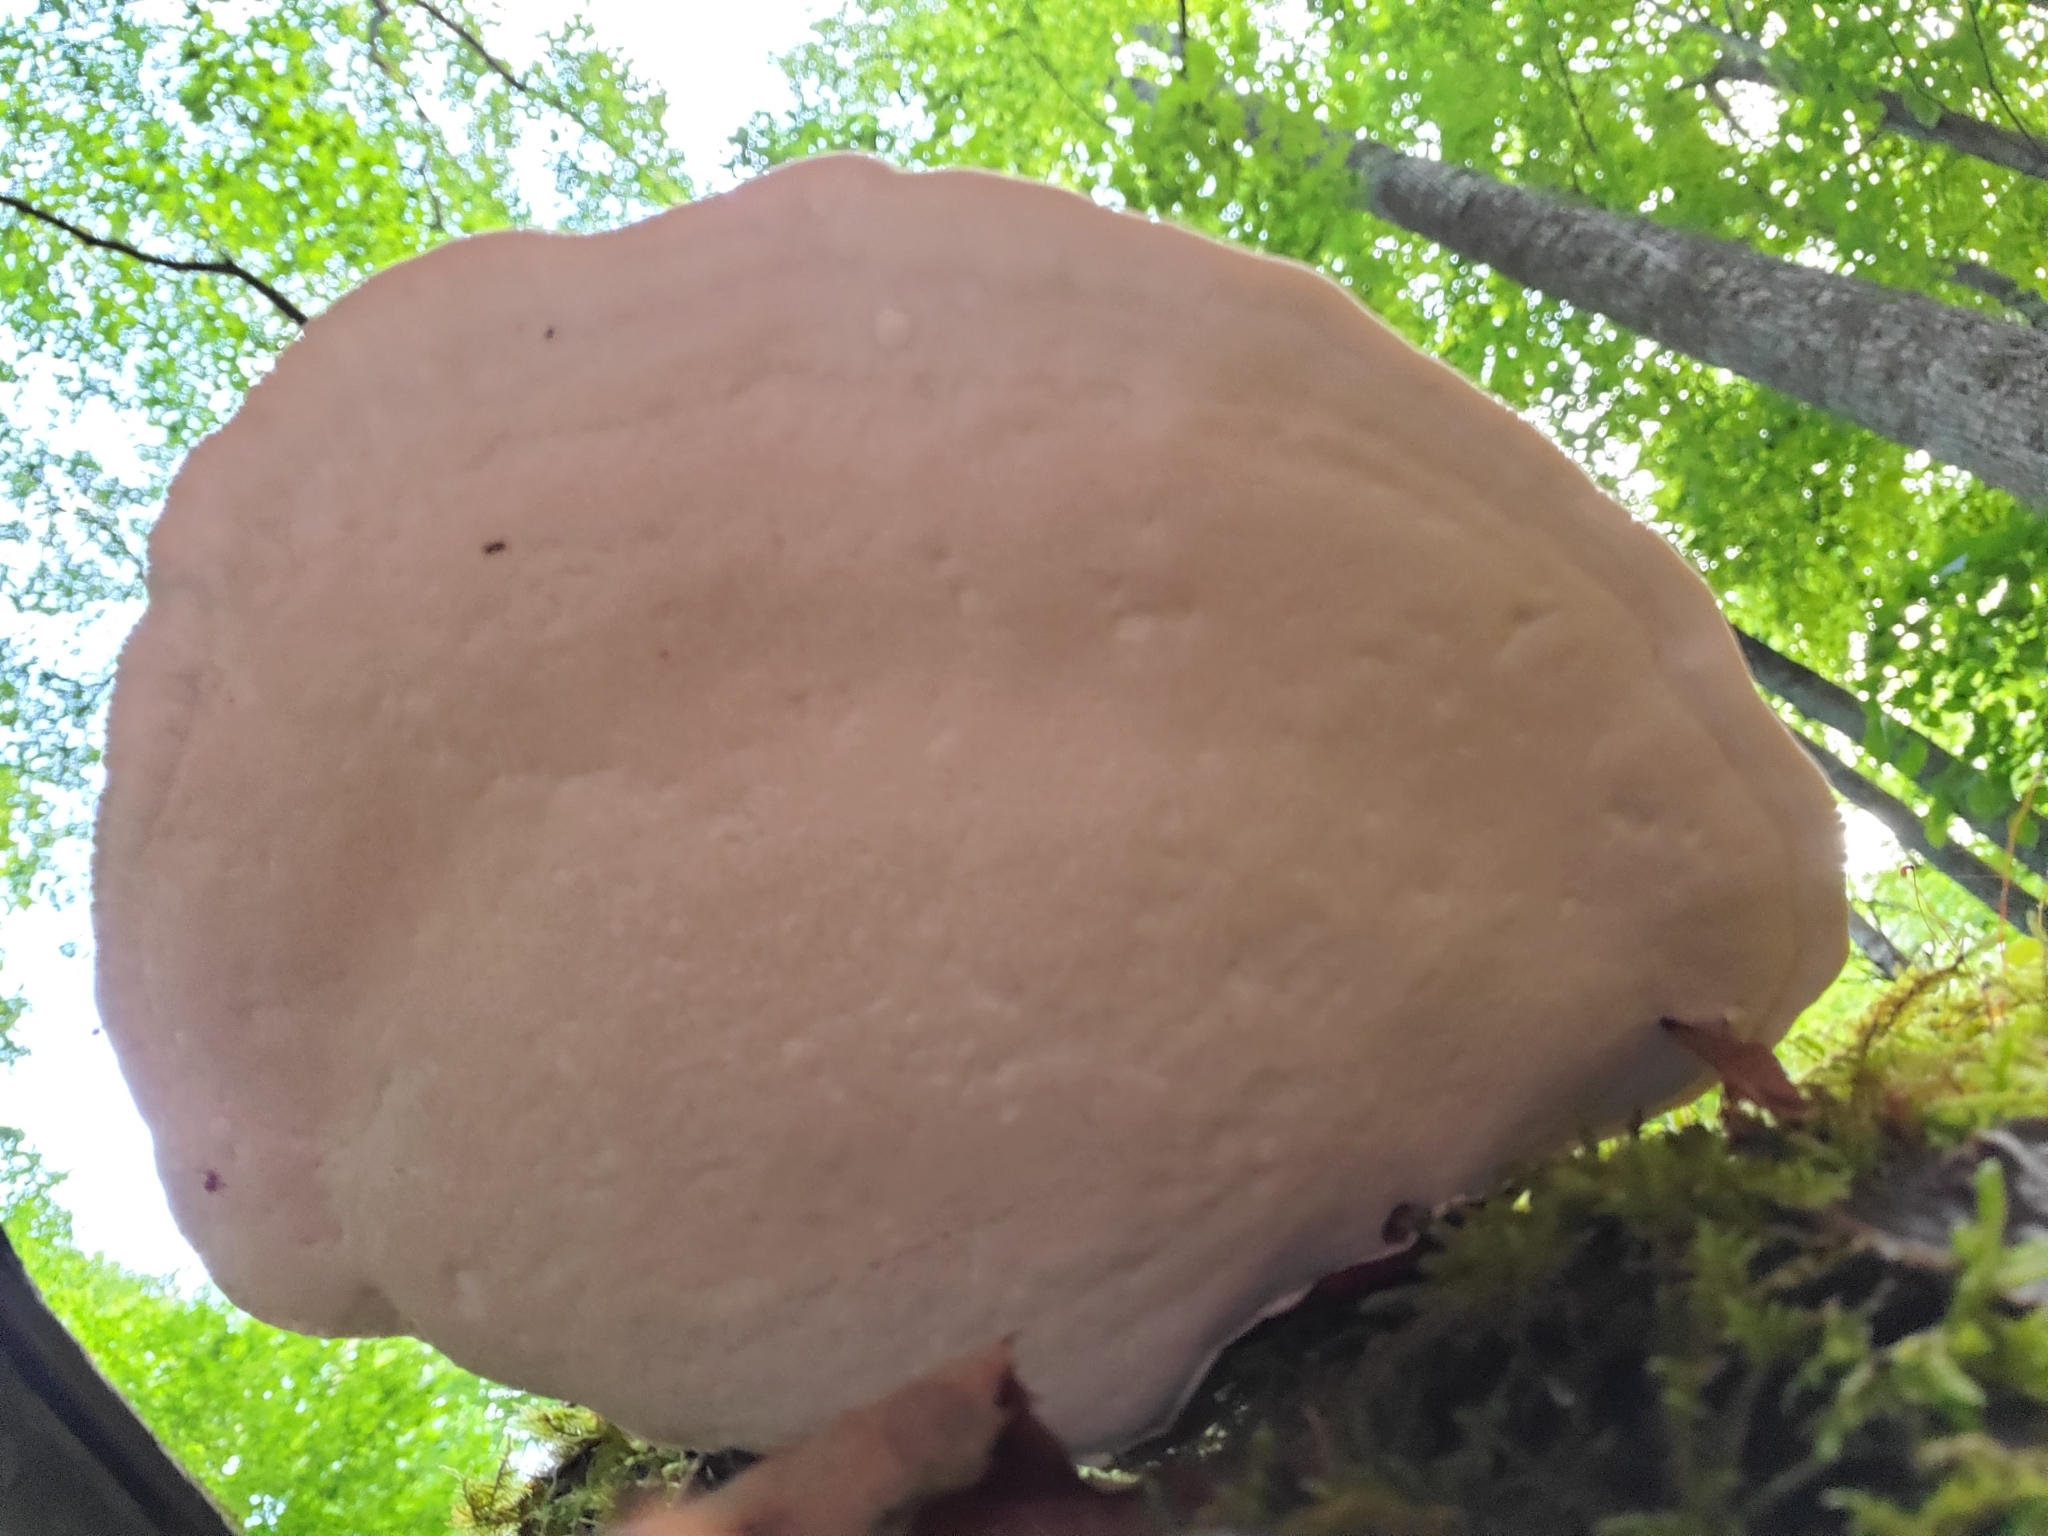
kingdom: Fungi
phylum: Basidiomycota
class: Agaricomycetes
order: Polyporales
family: Polyporaceae
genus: Ganoderma
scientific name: Ganoderma tsugae
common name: Hemlock varnish shelf
